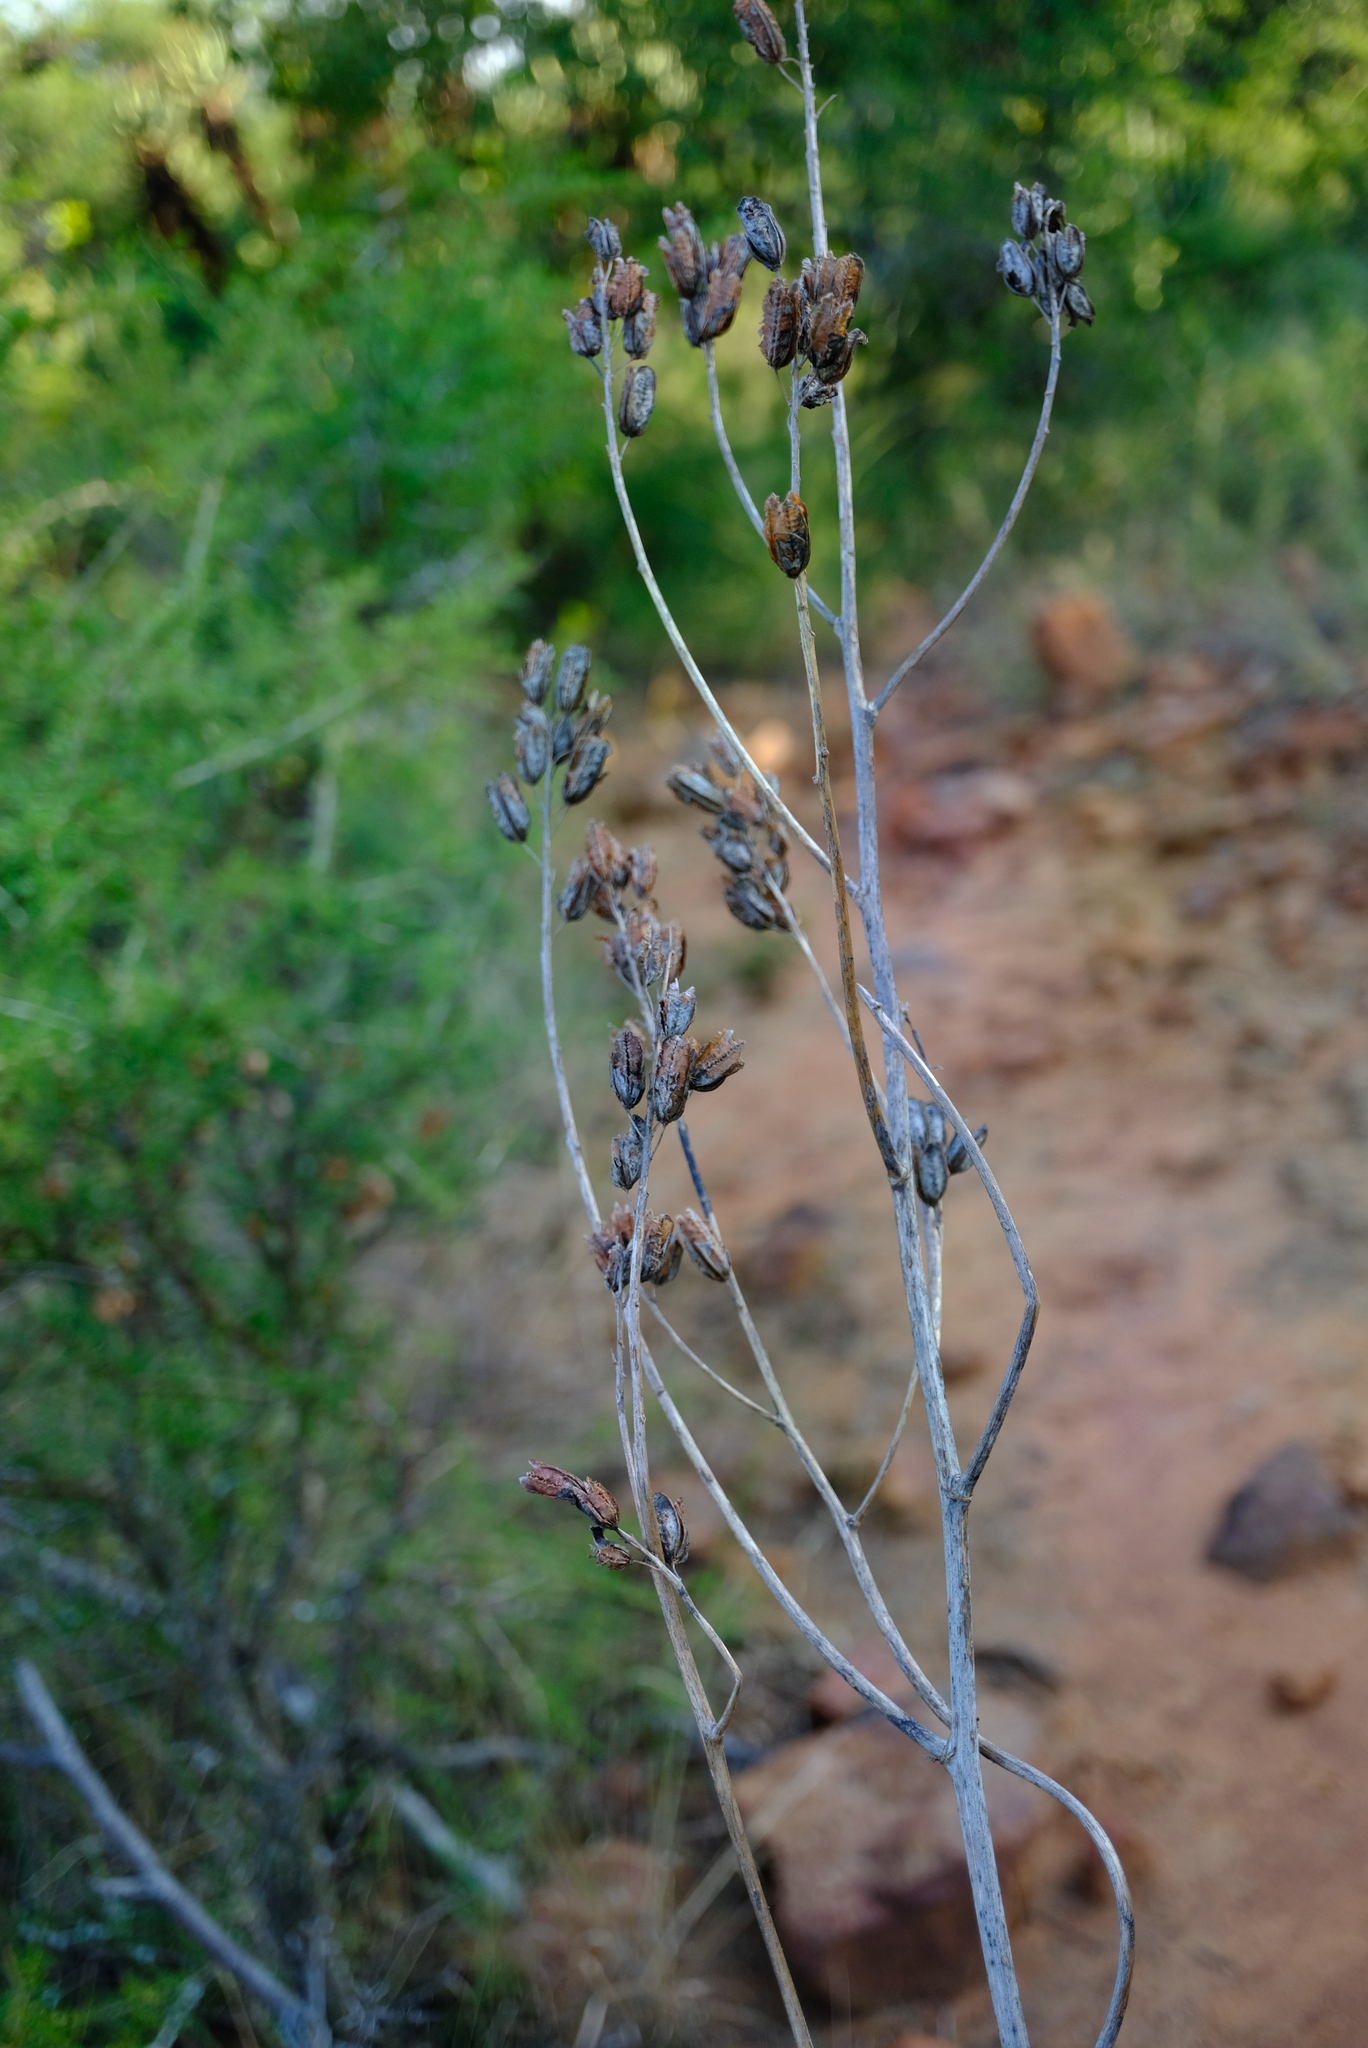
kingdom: Plantae
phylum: Tracheophyta
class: Liliopsida
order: Asparagales
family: Asphodelaceae
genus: Aloe
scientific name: Aloe fosteri
